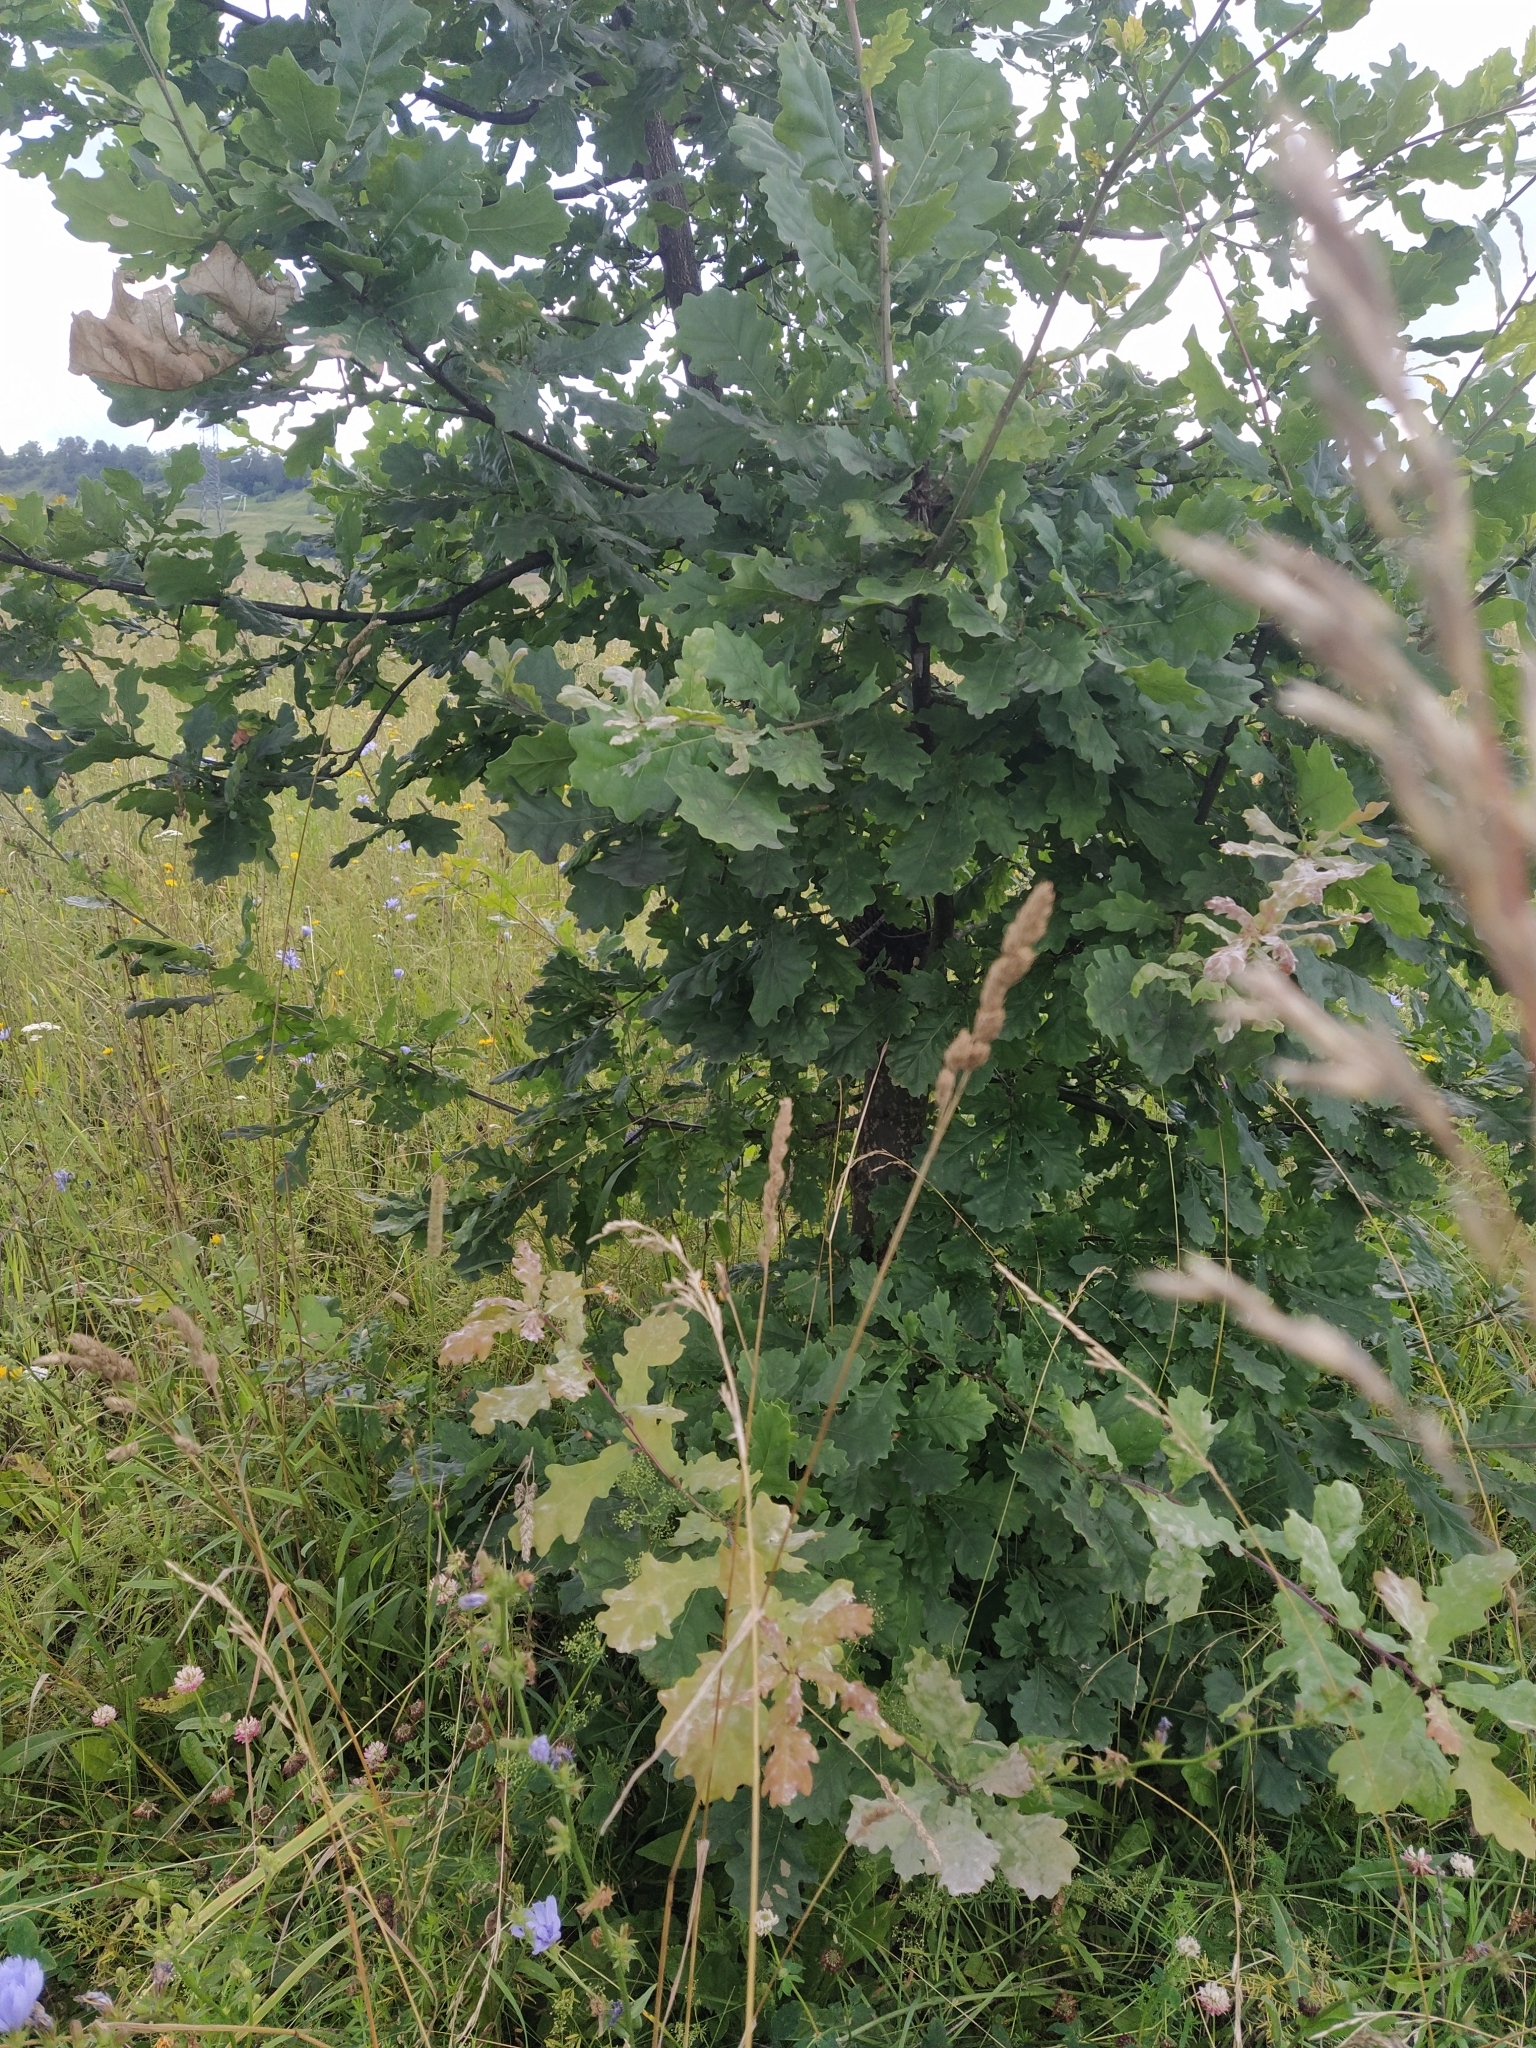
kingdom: Plantae
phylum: Tracheophyta
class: Magnoliopsida
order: Fagales
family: Fagaceae
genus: Quercus
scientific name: Quercus robur
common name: Pedunculate oak
